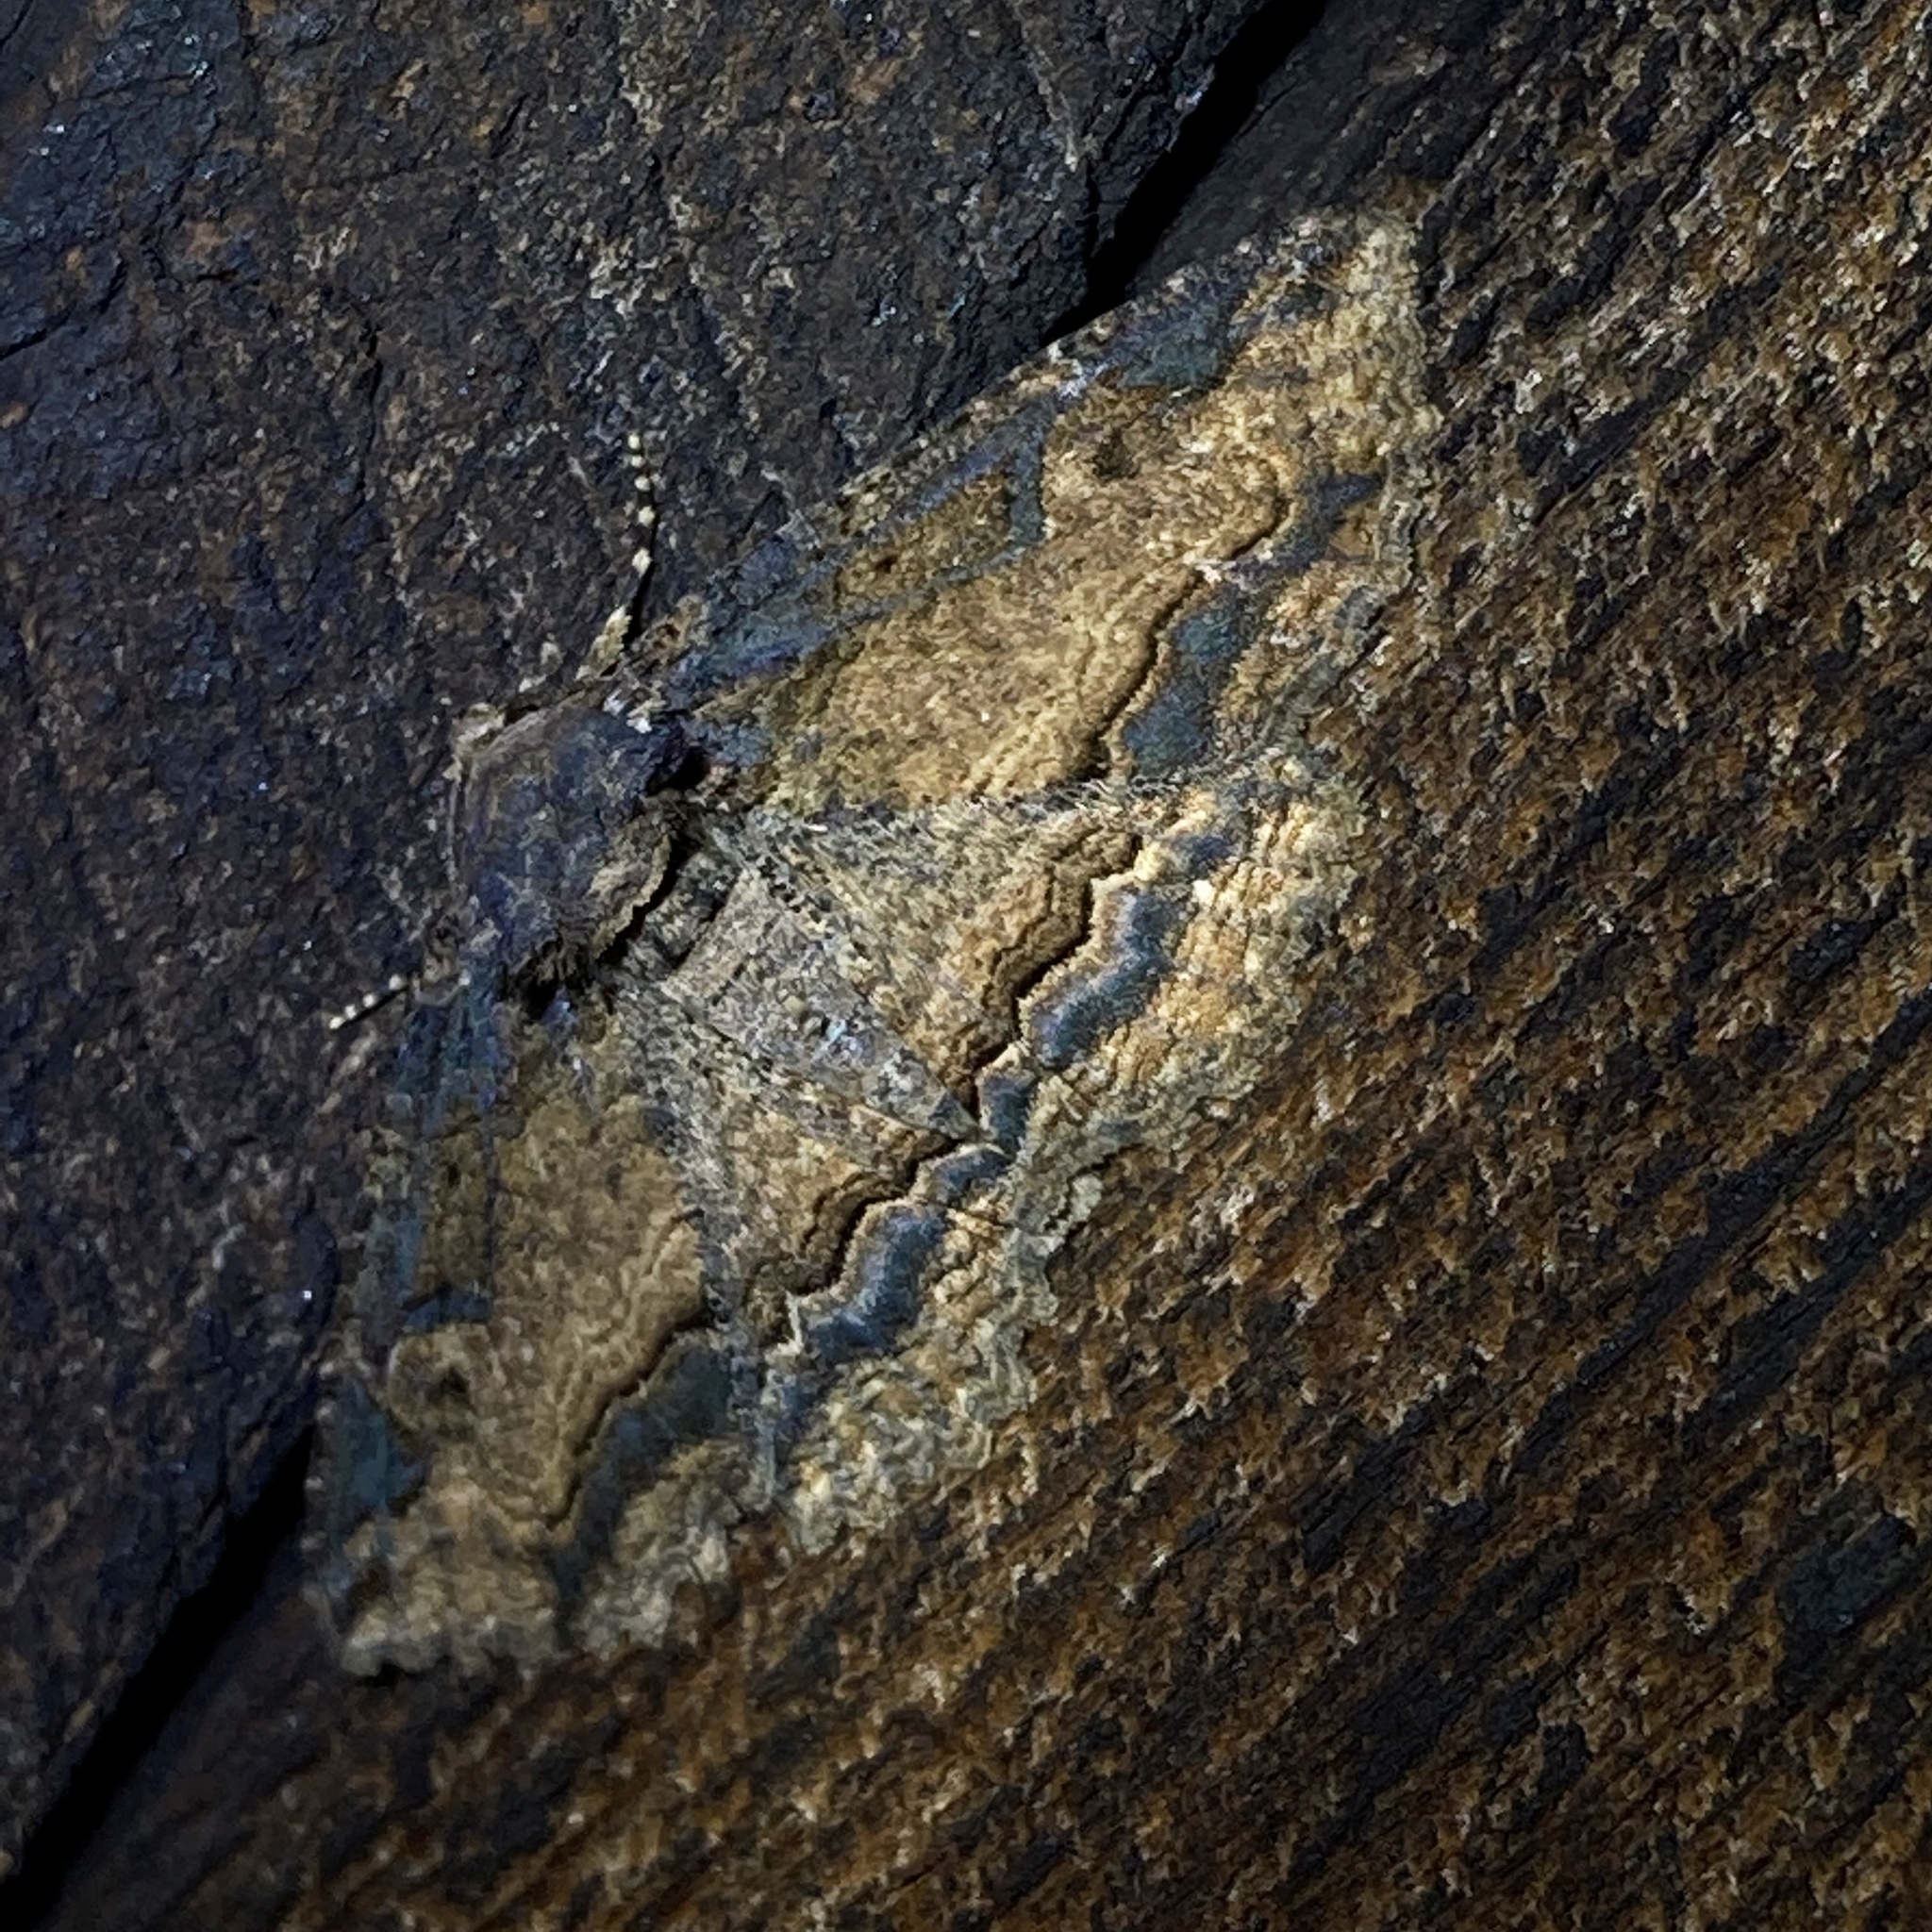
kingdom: Animalia
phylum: Arthropoda
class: Insecta
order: Lepidoptera
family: Erebidae
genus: Zale
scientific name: Zale minerea
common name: Colorful zale moth
